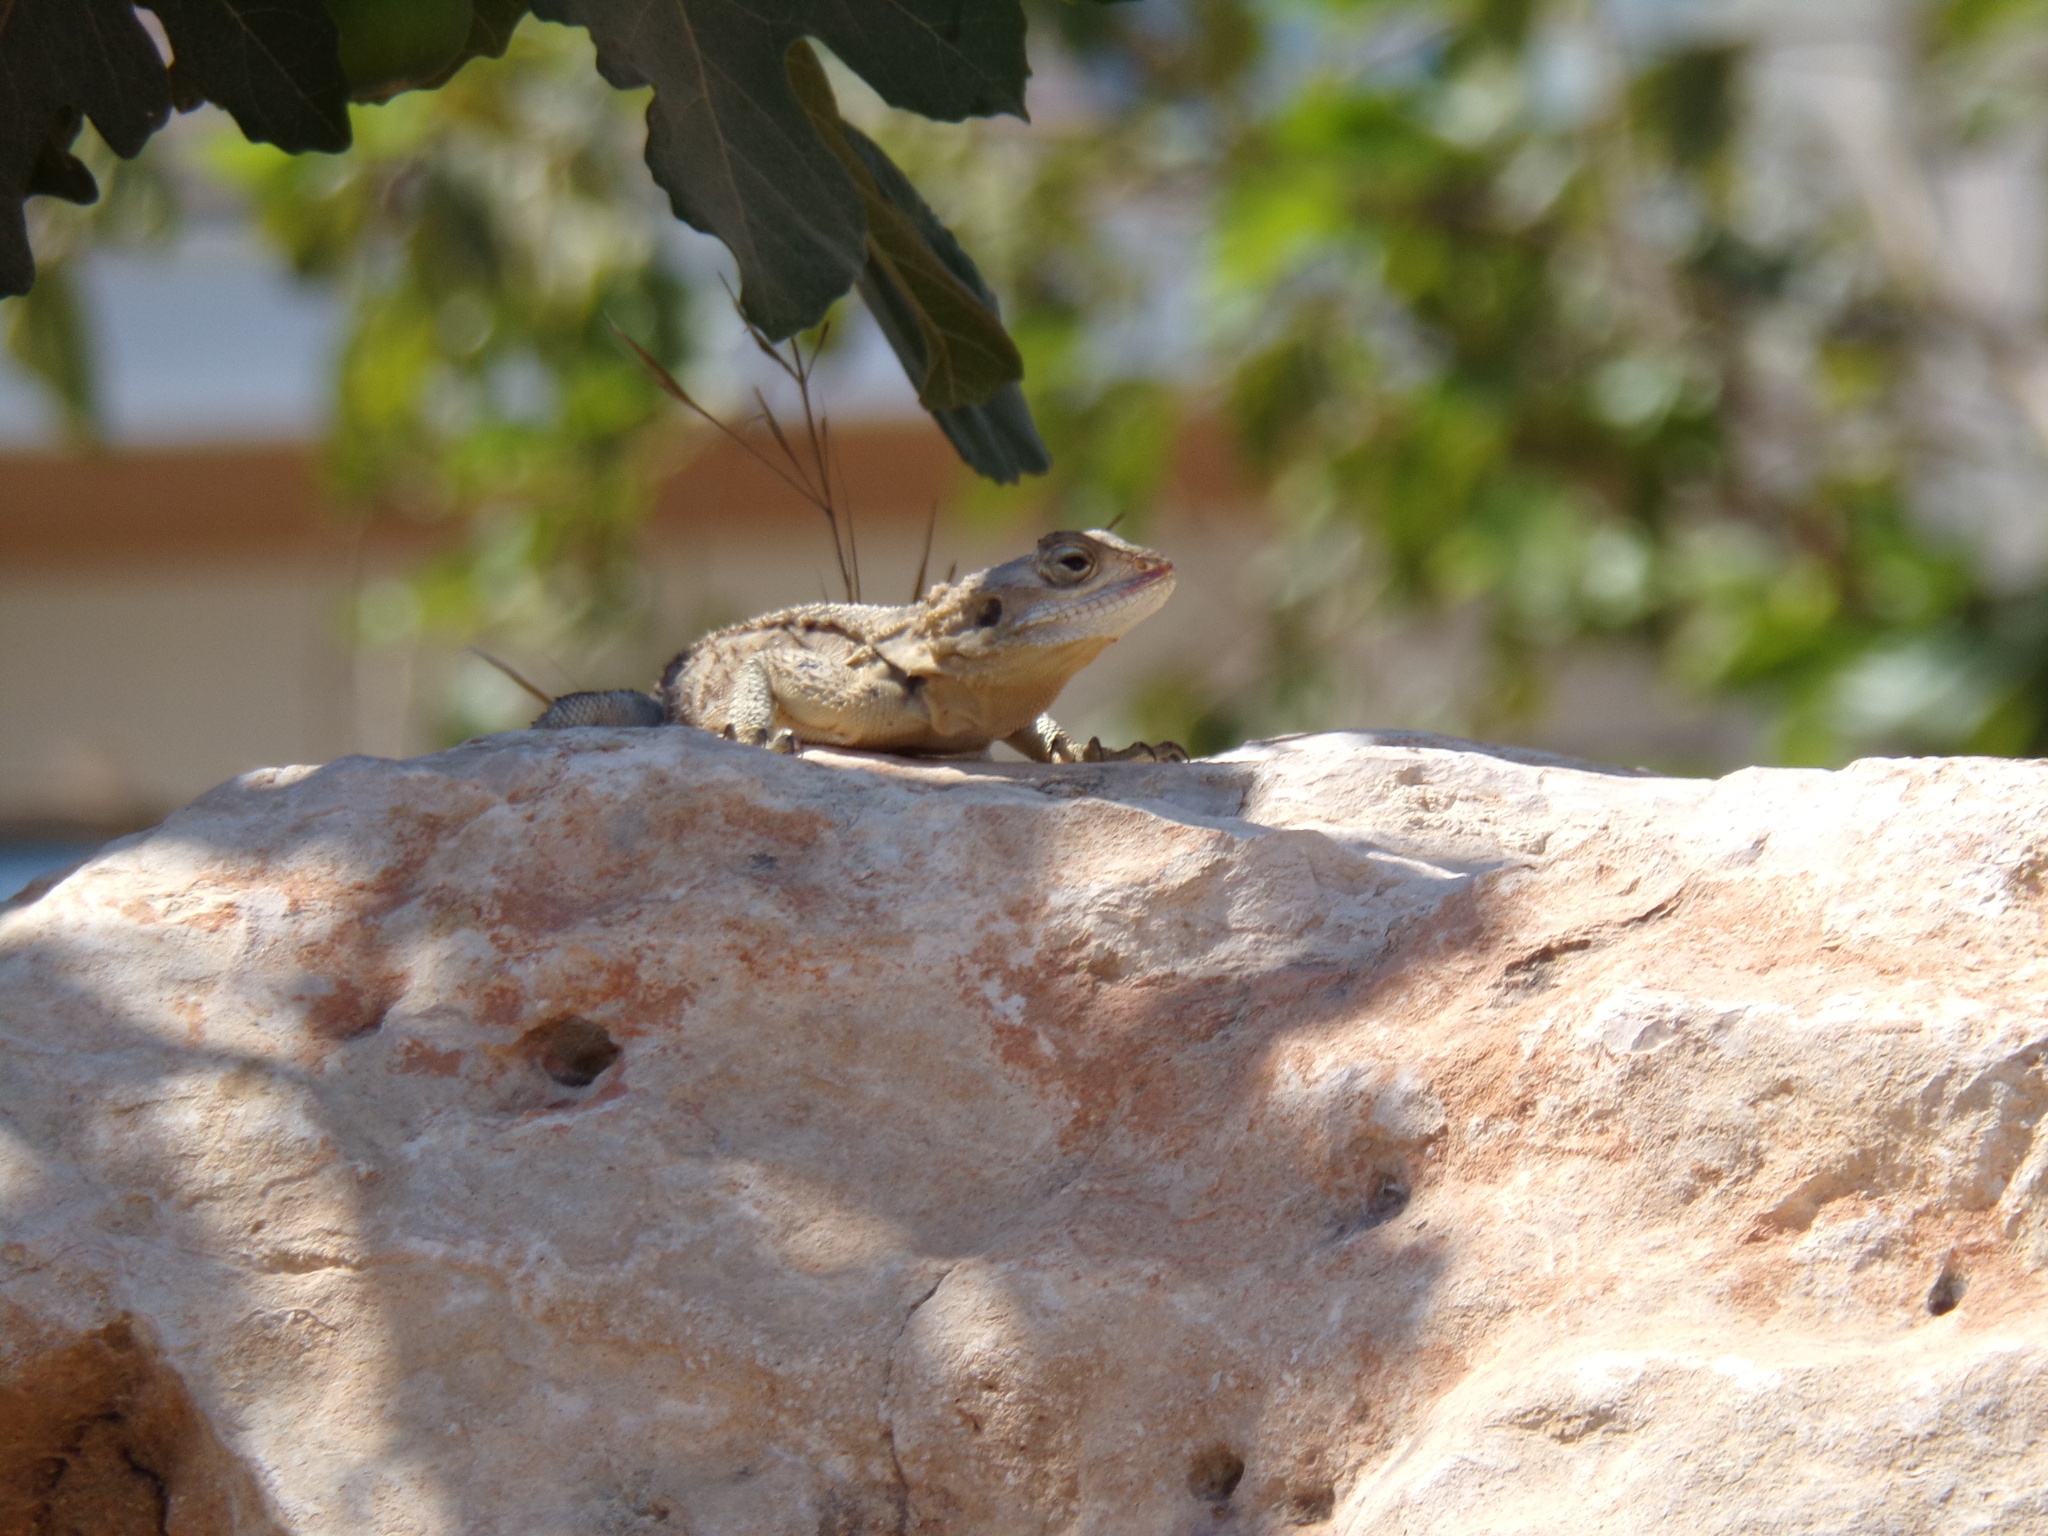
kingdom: Animalia
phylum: Chordata
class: Squamata
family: Agamidae
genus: Laudakia
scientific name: Laudakia
